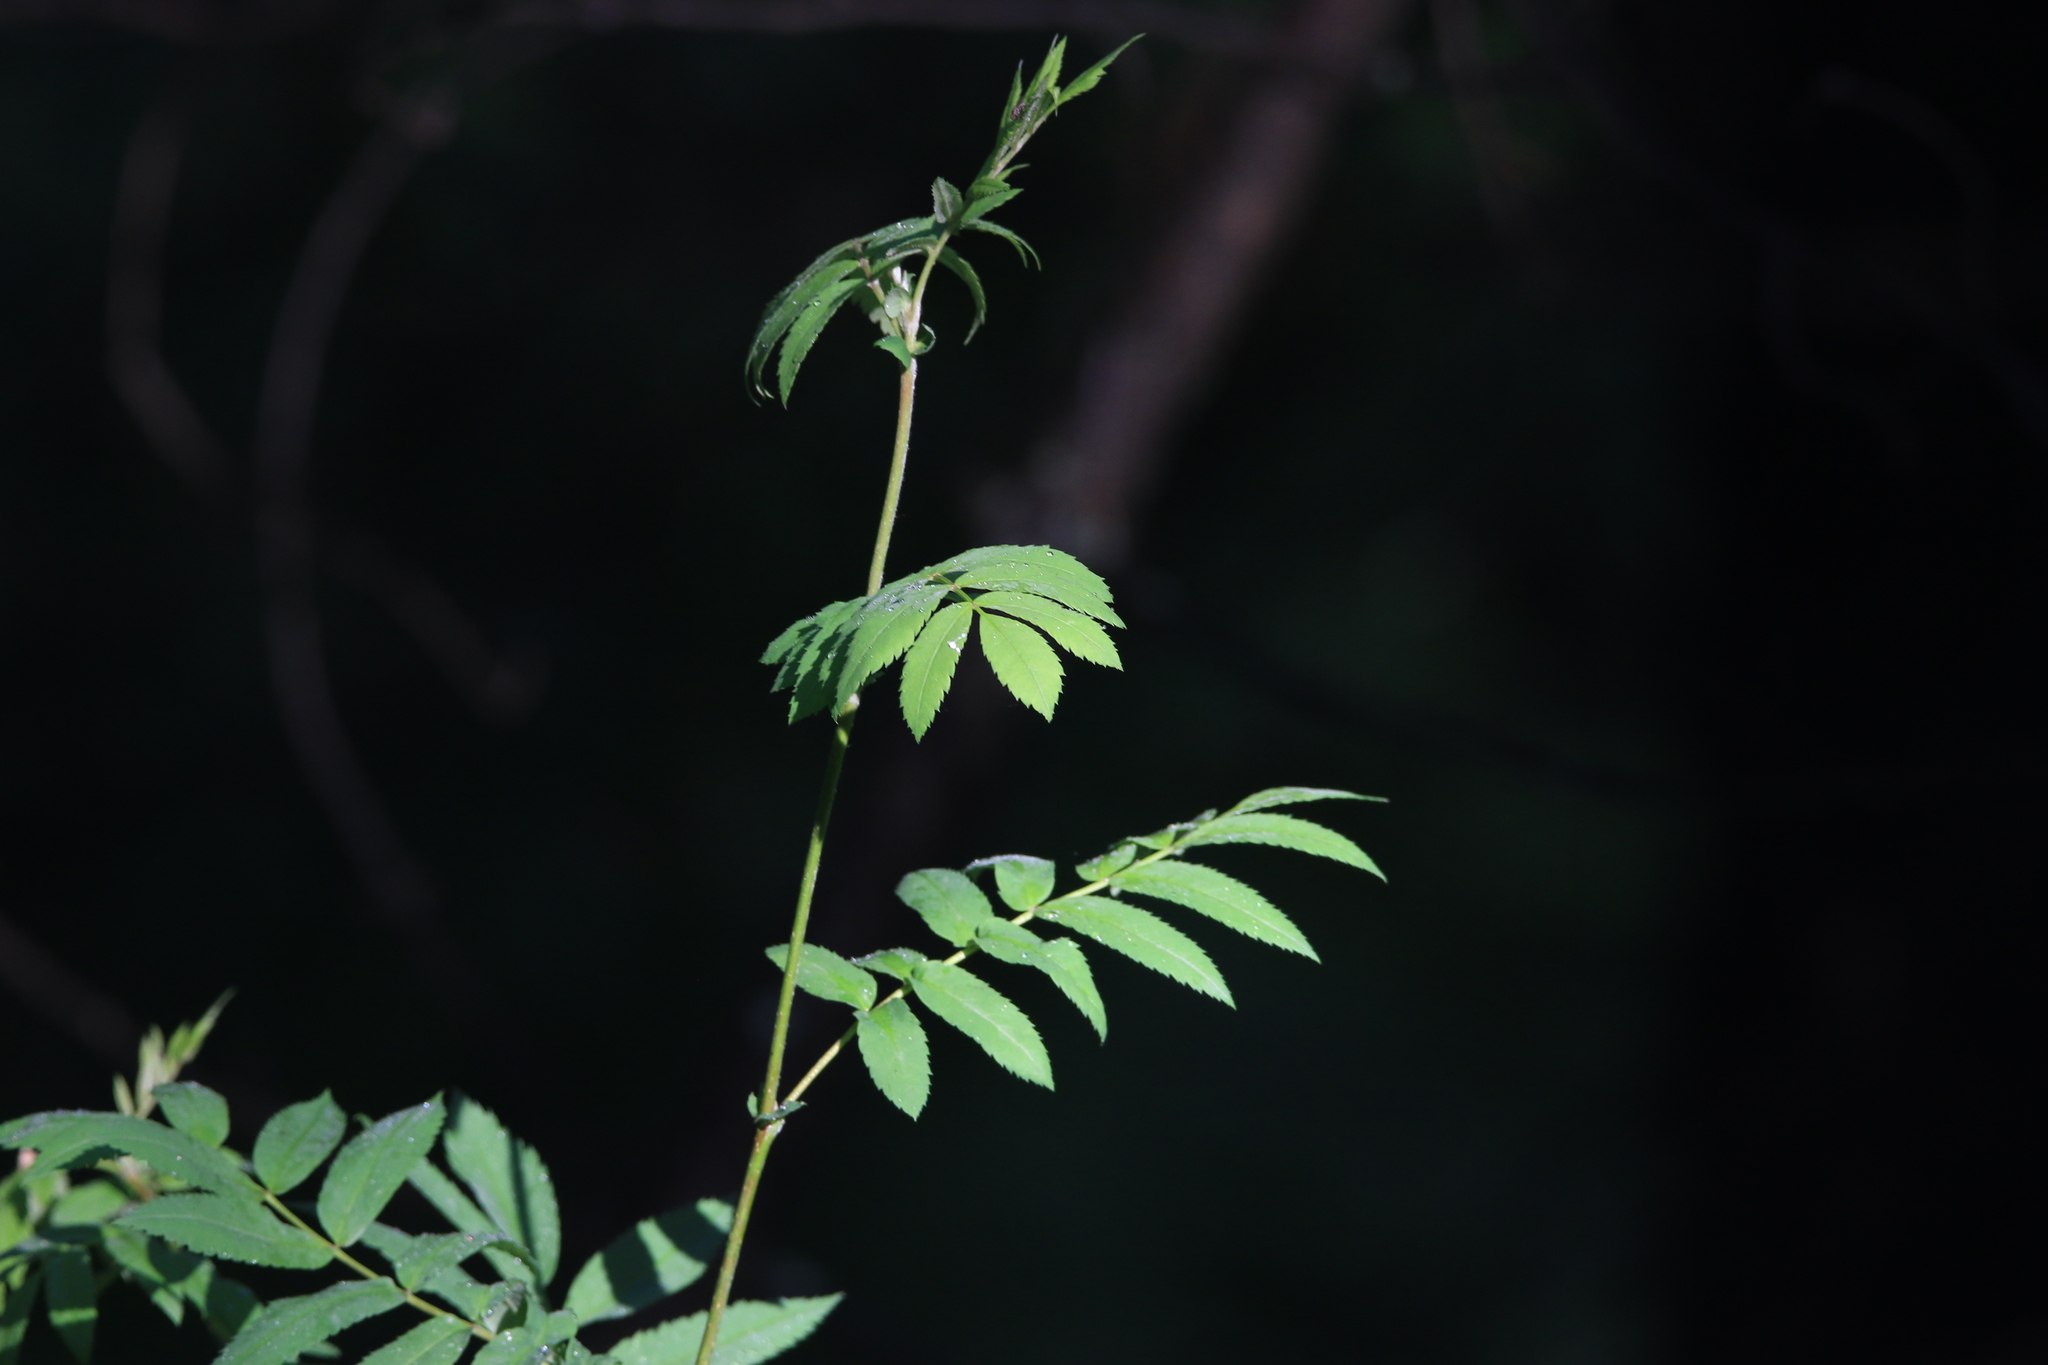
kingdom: Plantae
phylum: Tracheophyta
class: Magnoliopsida
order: Rosales
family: Rosaceae
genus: Sorbus
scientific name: Sorbus aucuparia
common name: Rowan
